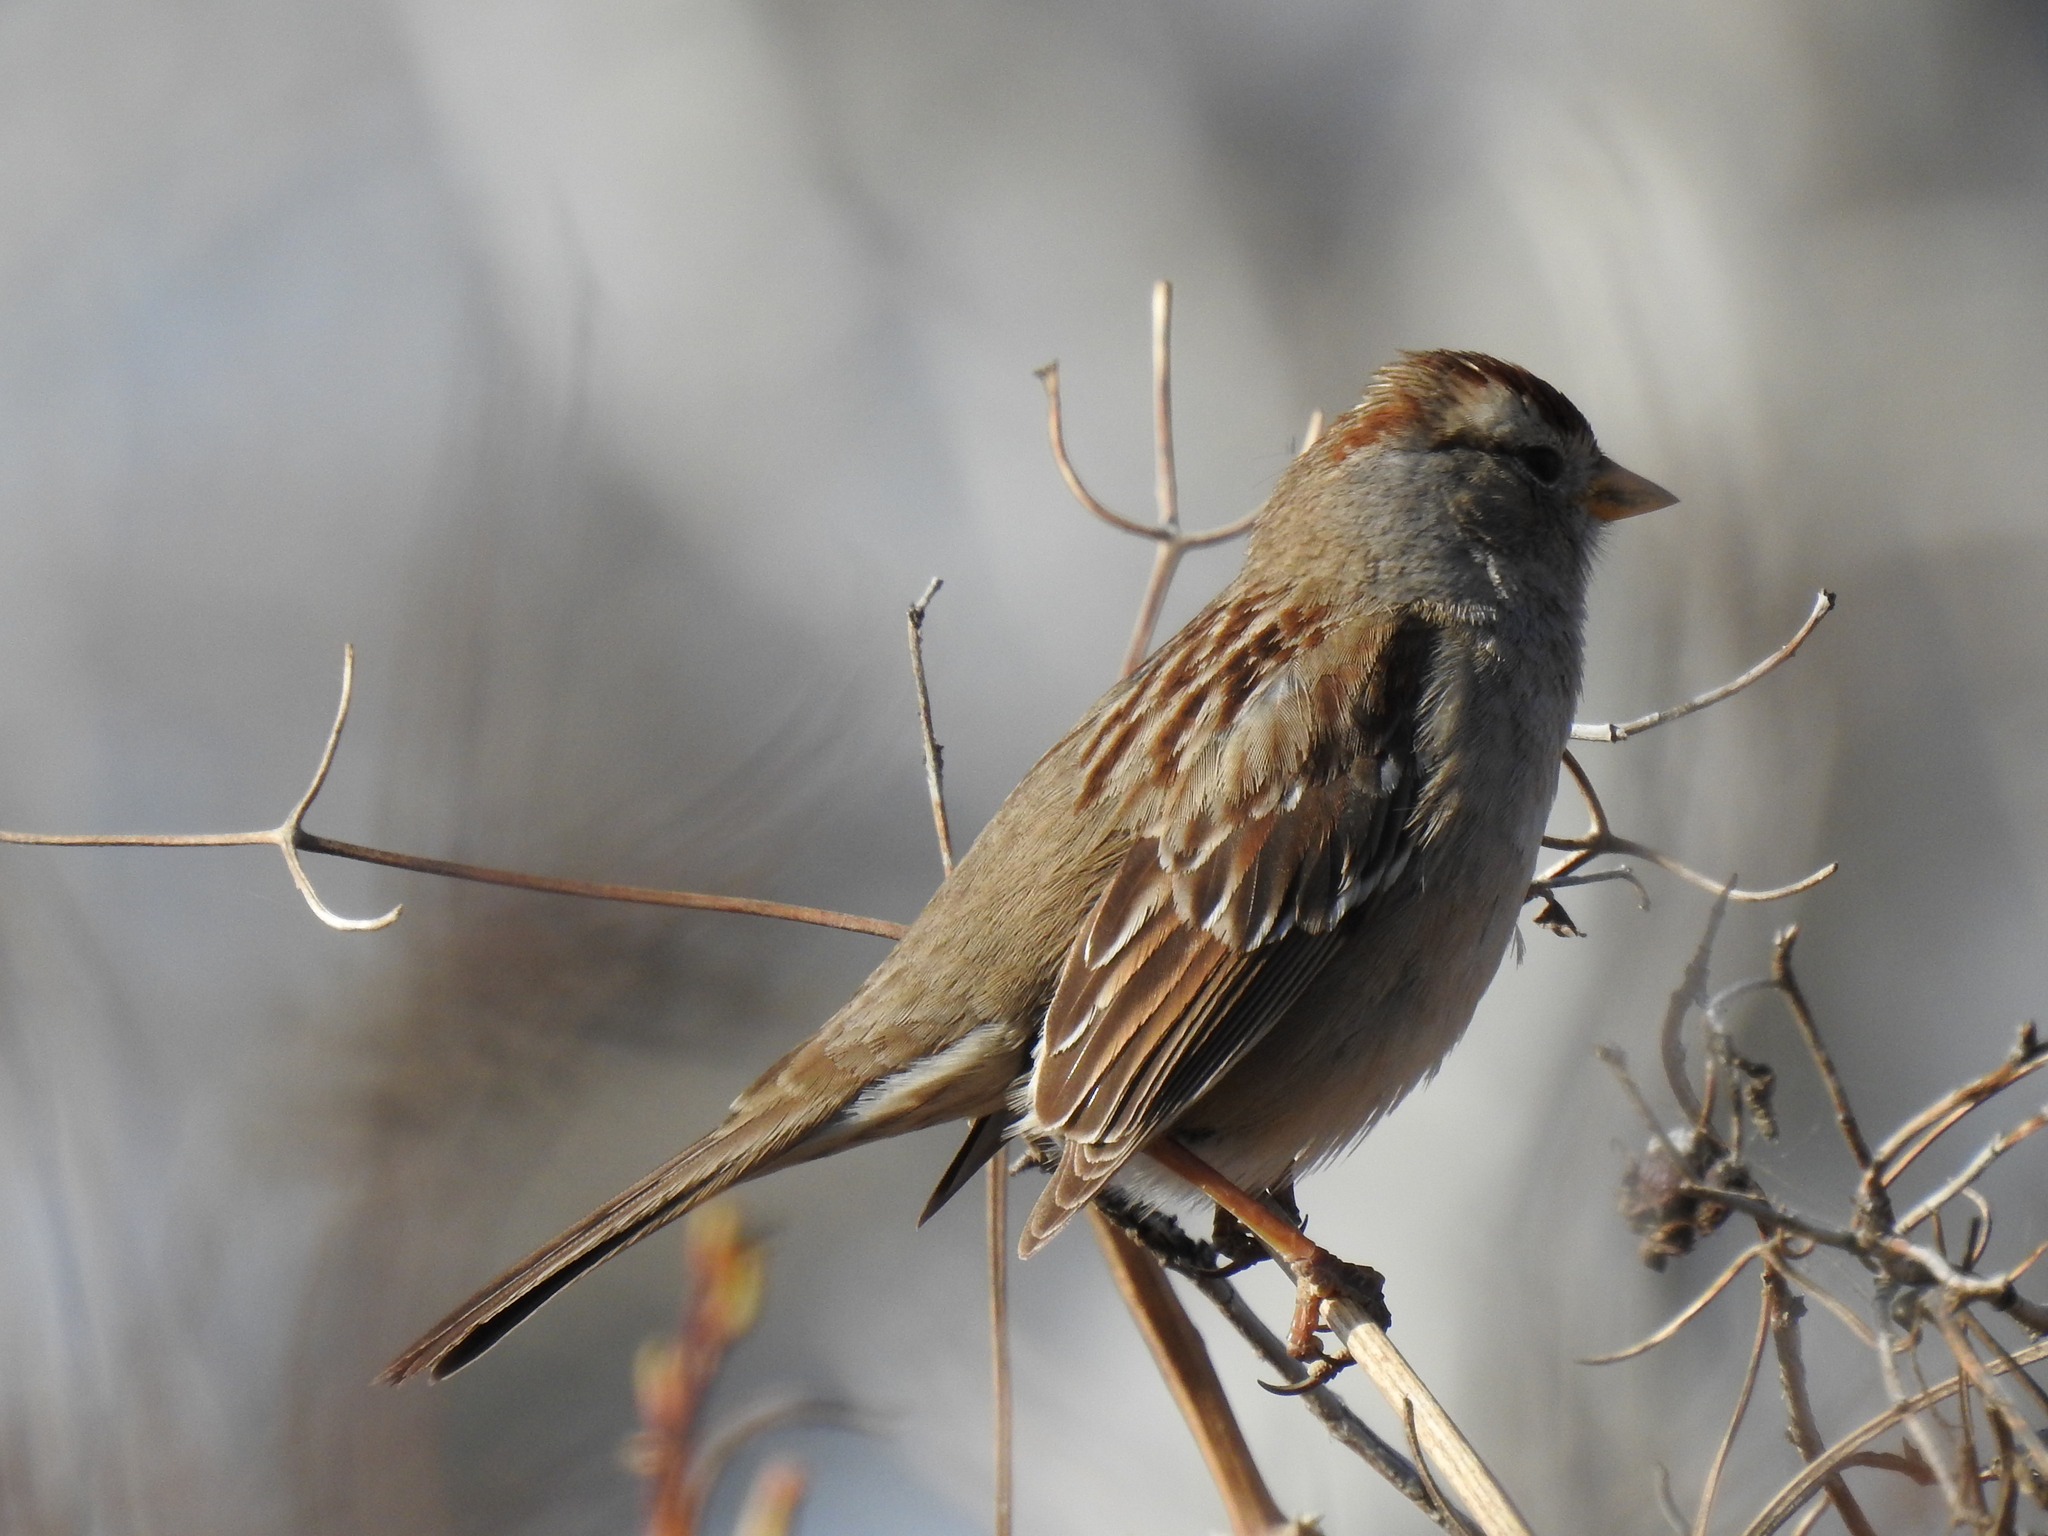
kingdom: Animalia
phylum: Chordata
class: Aves
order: Passeriformes
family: Passerellidae
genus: Zonotrichia
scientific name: Zonotrichia leucophrys
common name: White-crowned sparrow
